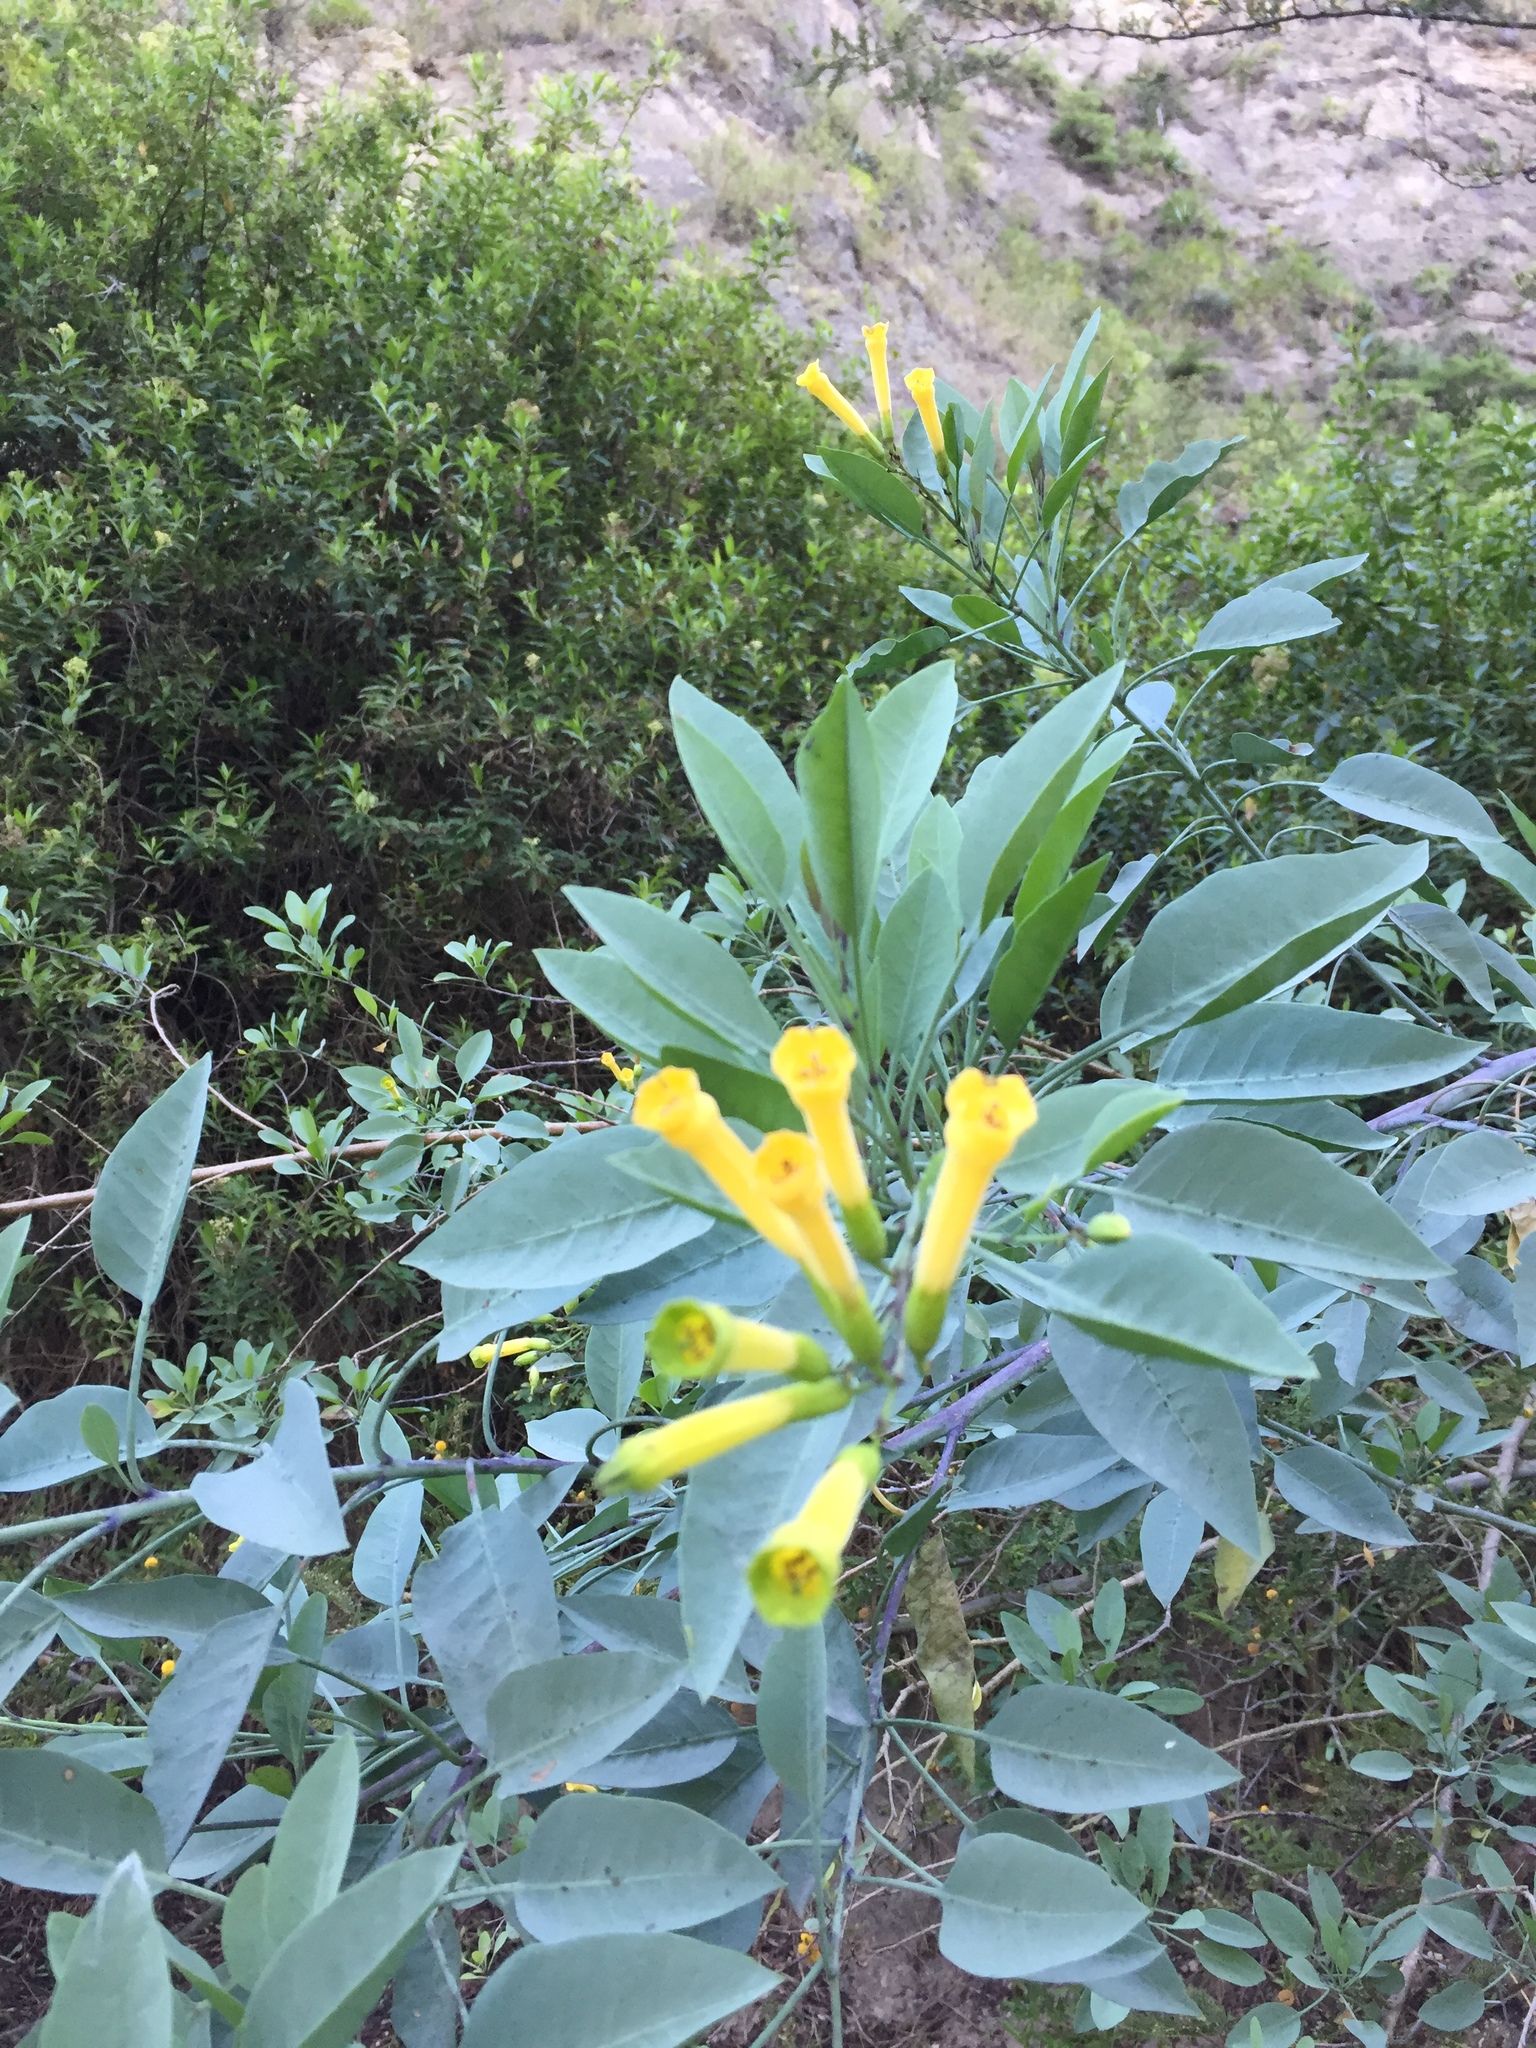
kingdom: Plantae
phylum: Tracheophyta
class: Magnoliopsida
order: Solanales
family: Solanaceae
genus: Nicotiana
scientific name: Nicotiana glauca
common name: Tree tobacco
